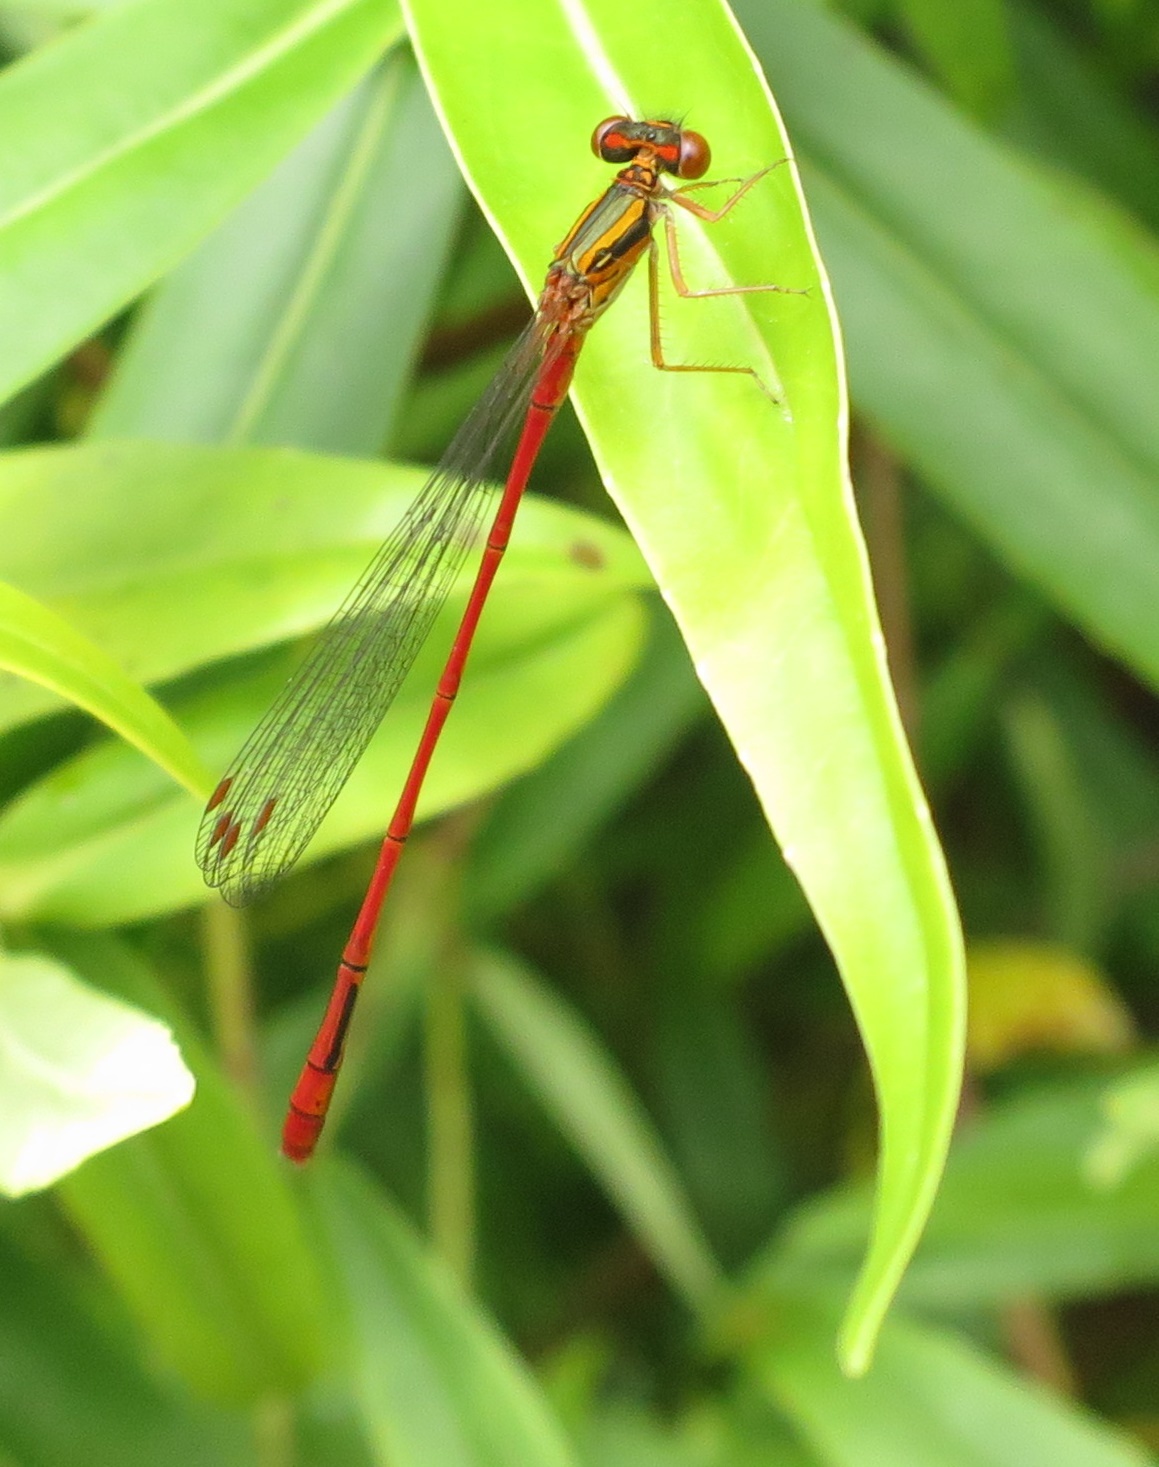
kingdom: Animalia
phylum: Arthropoda
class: Insecta
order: Odonata
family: Coenagrionidae
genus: Xanthocnemis
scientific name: Xanthocnemis zealandica
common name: Common redcoat damselfly
